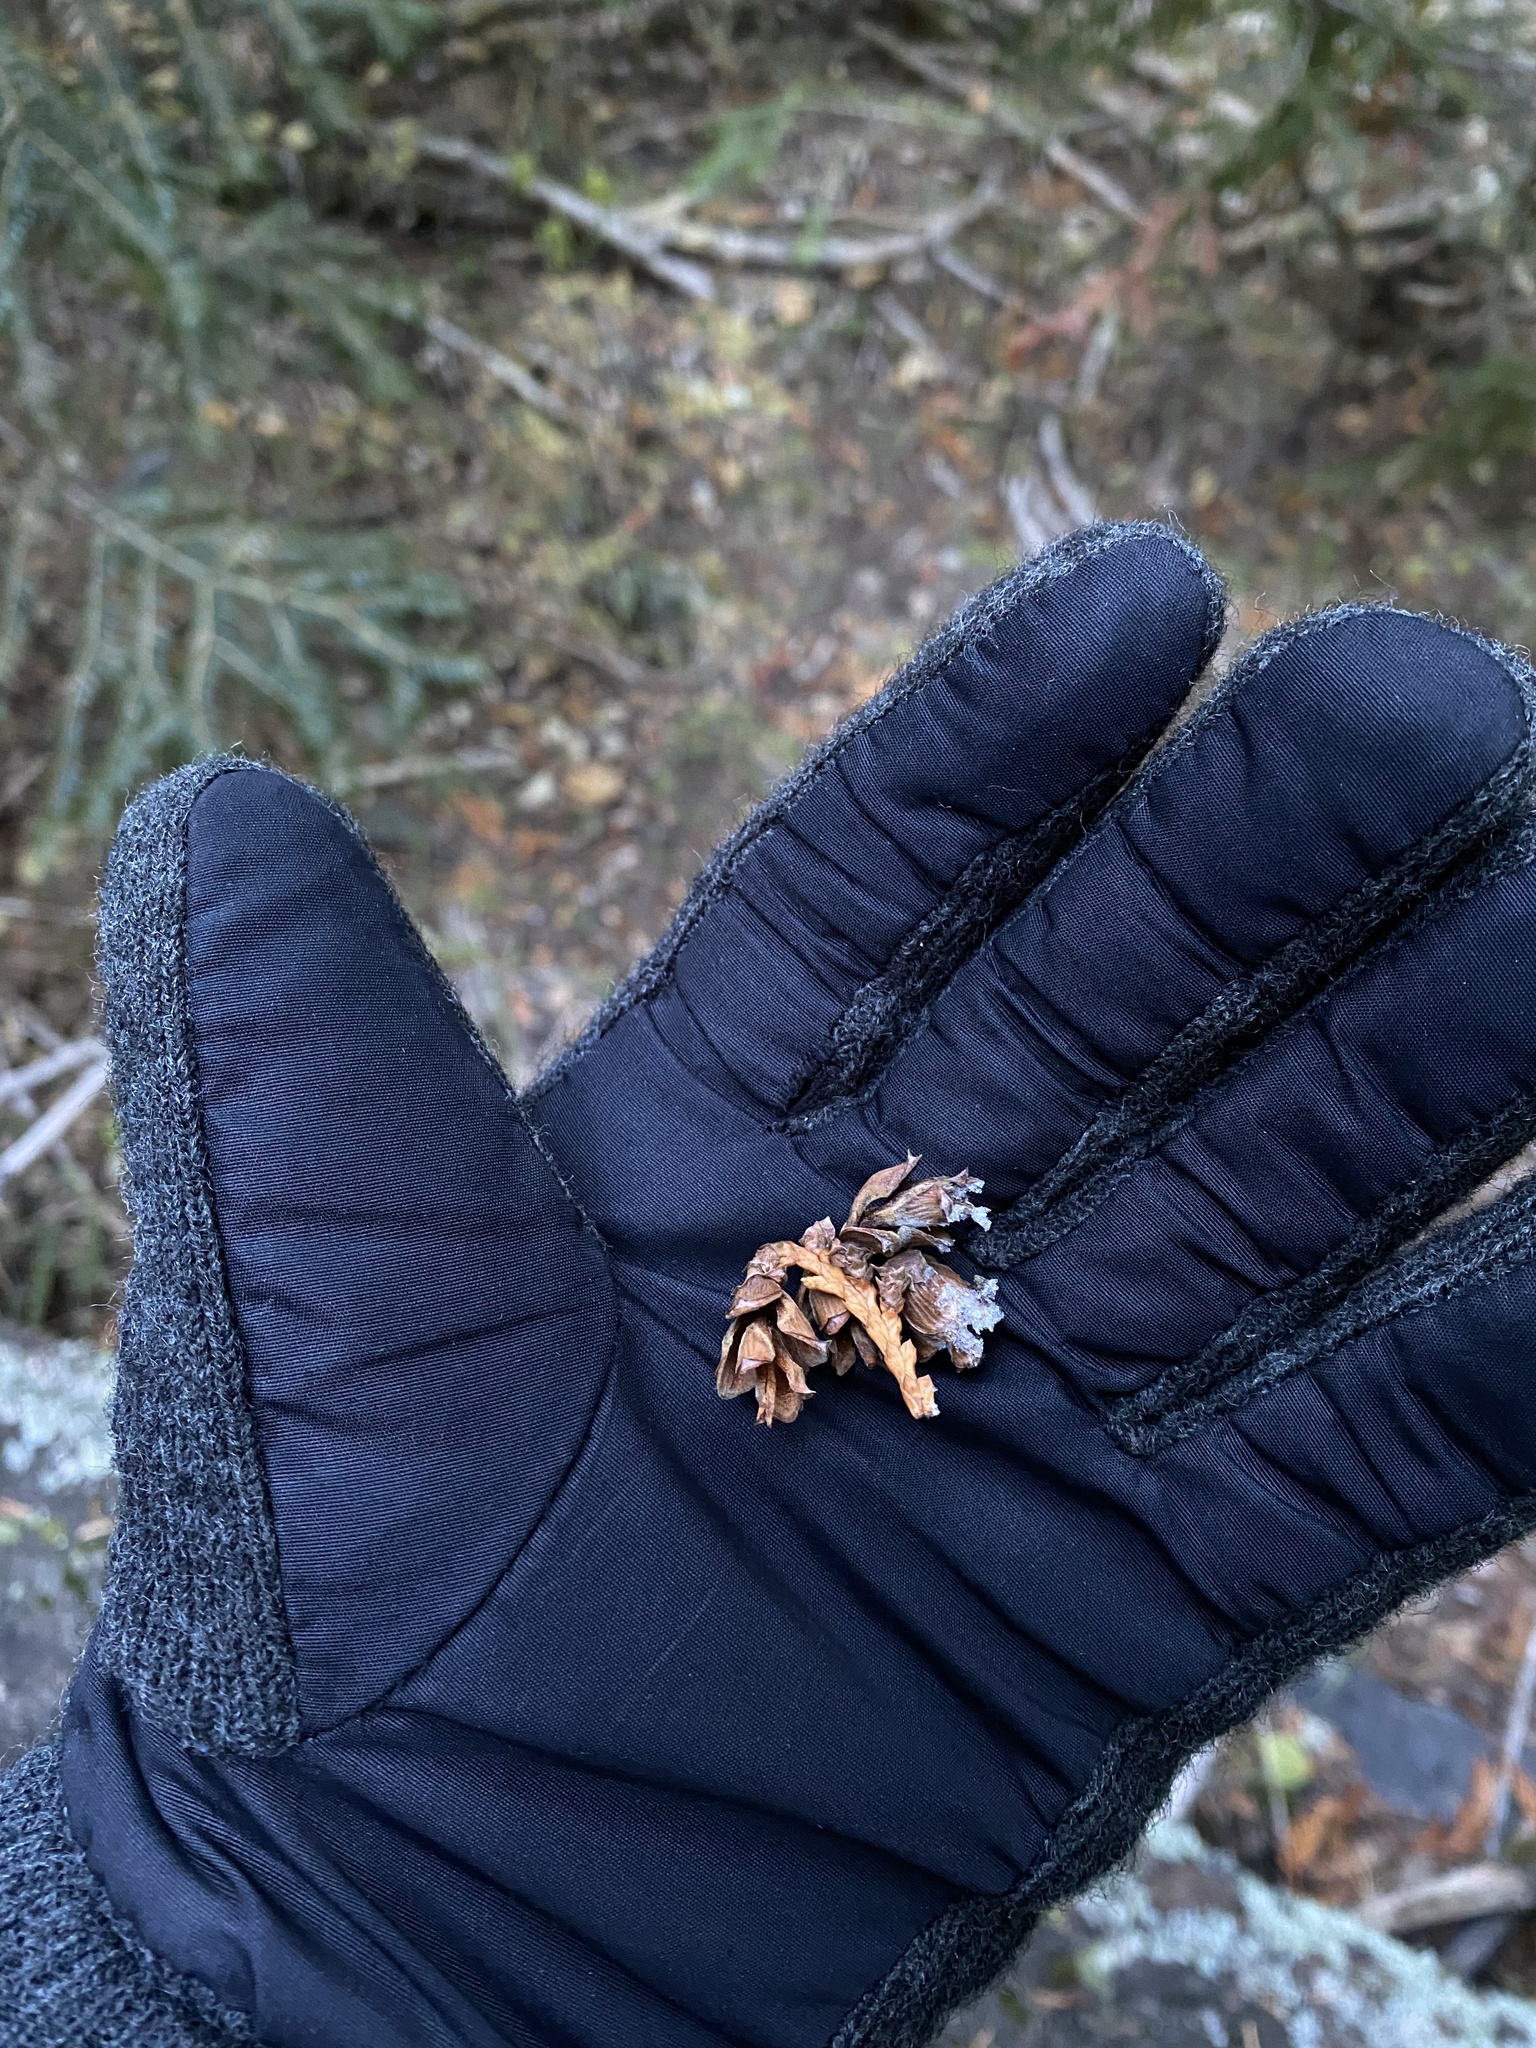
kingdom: Plantae
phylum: Tracheophyta
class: Pinopsida
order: Pinales
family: Cupressaceae
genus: Thuja
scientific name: Thuja plicata
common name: Western red-cedar
